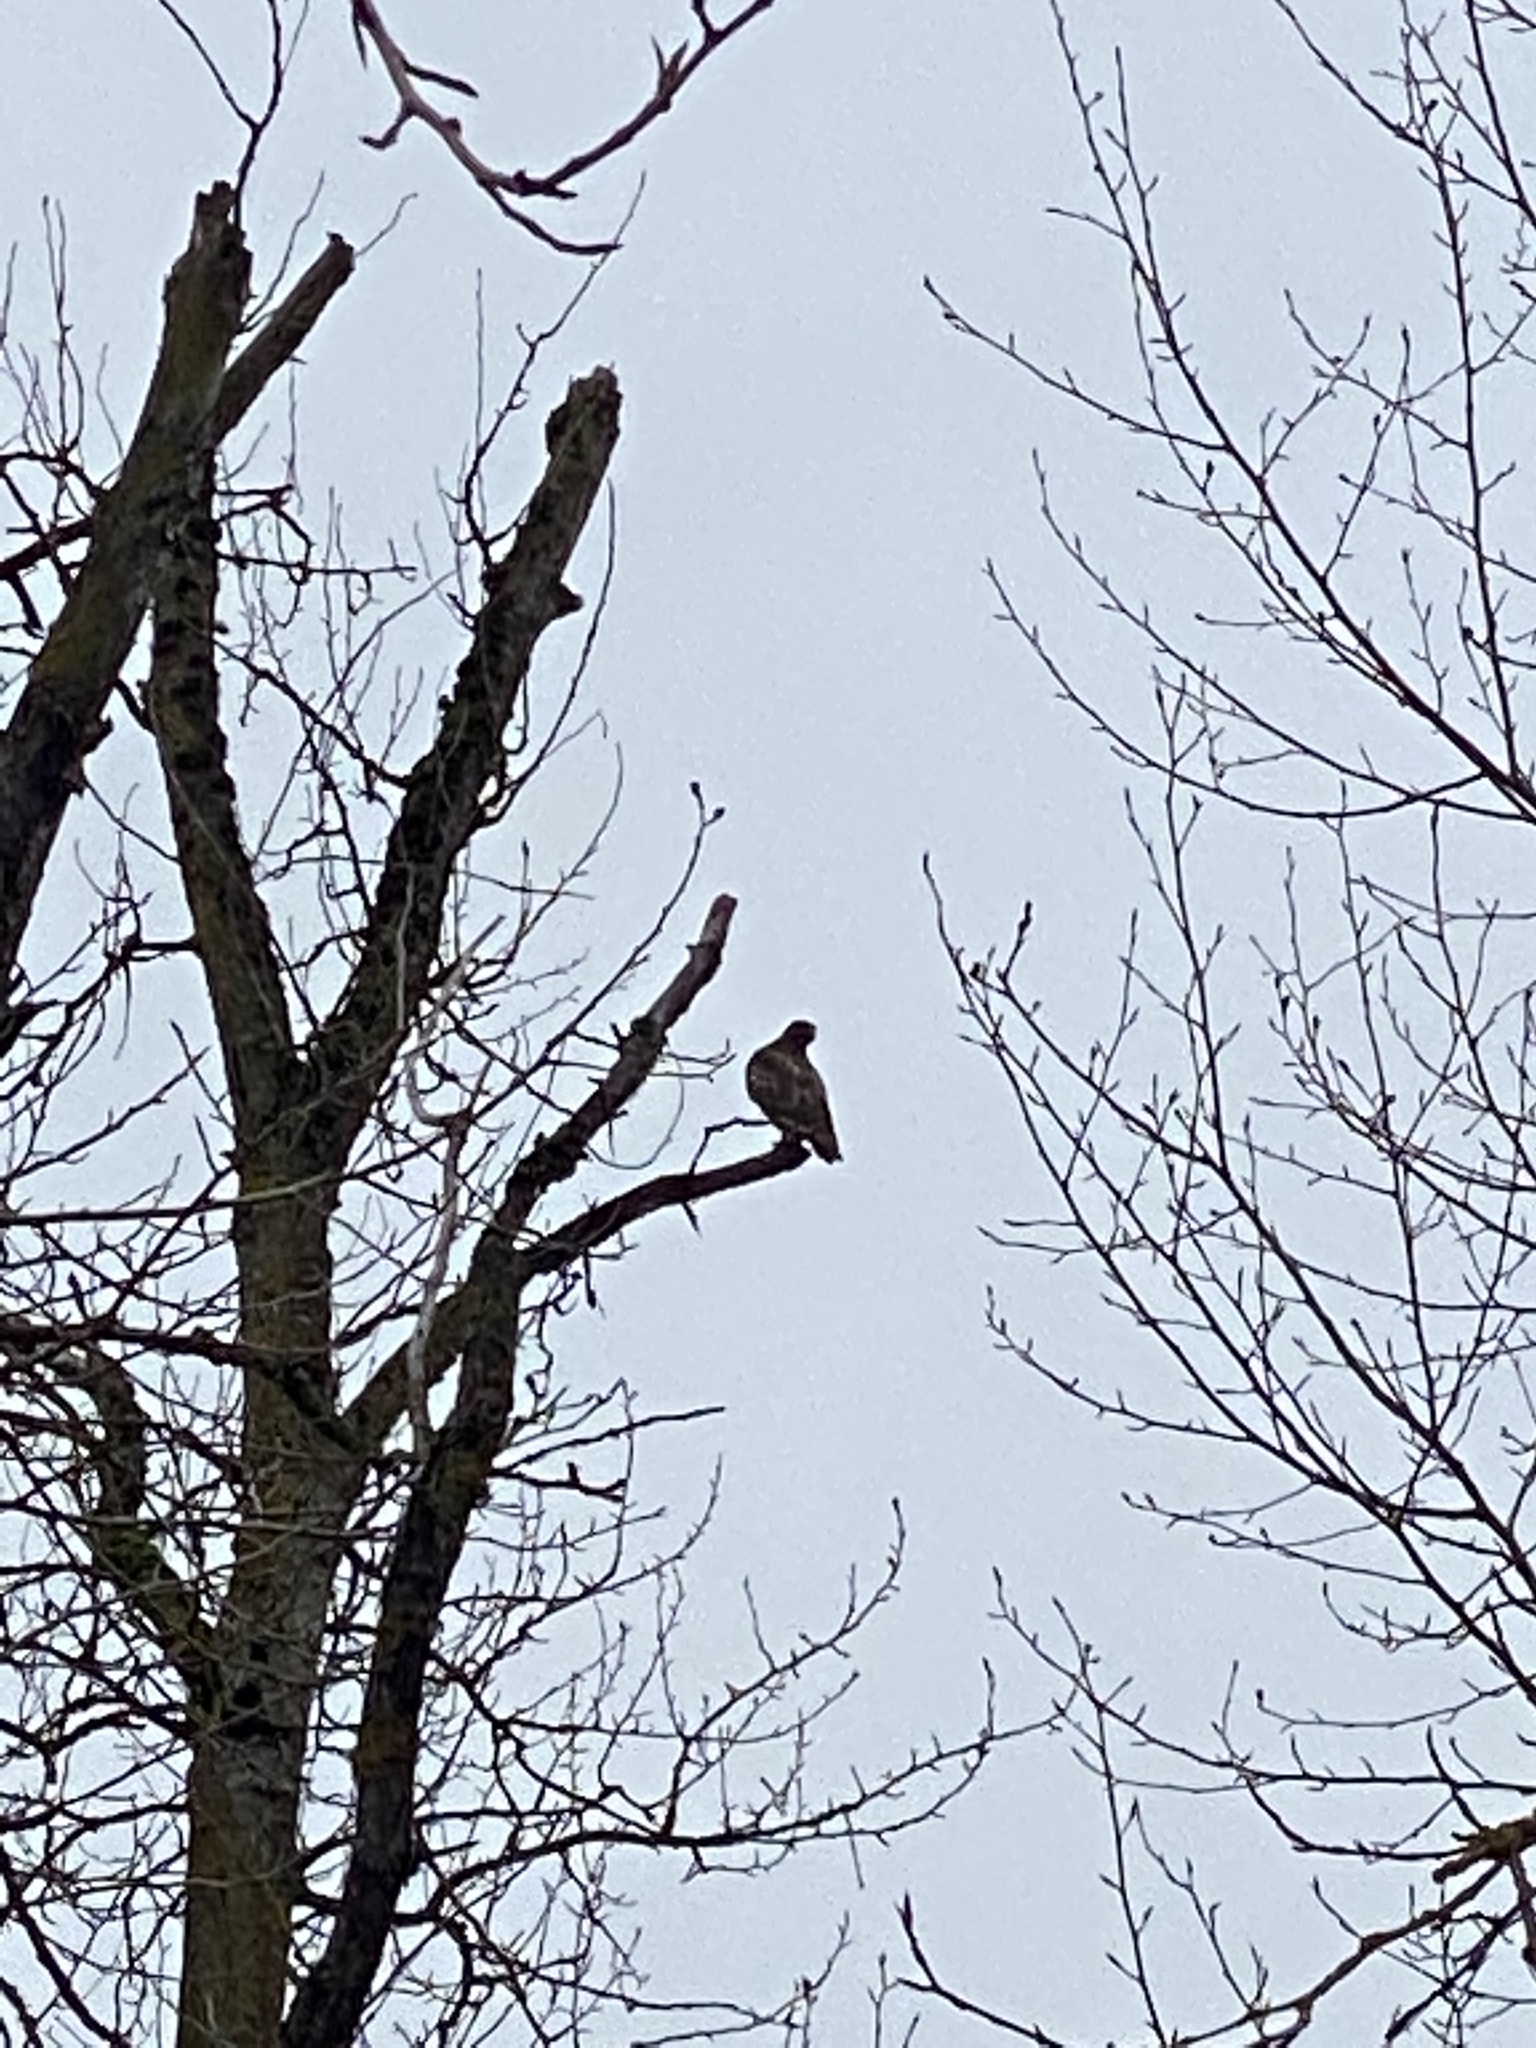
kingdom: Animalia
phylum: Chordata
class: Aves
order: Accipitriformes
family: Accipitridae
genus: Buteo
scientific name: Buteo jamaicensis
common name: Red-tailed hawk
